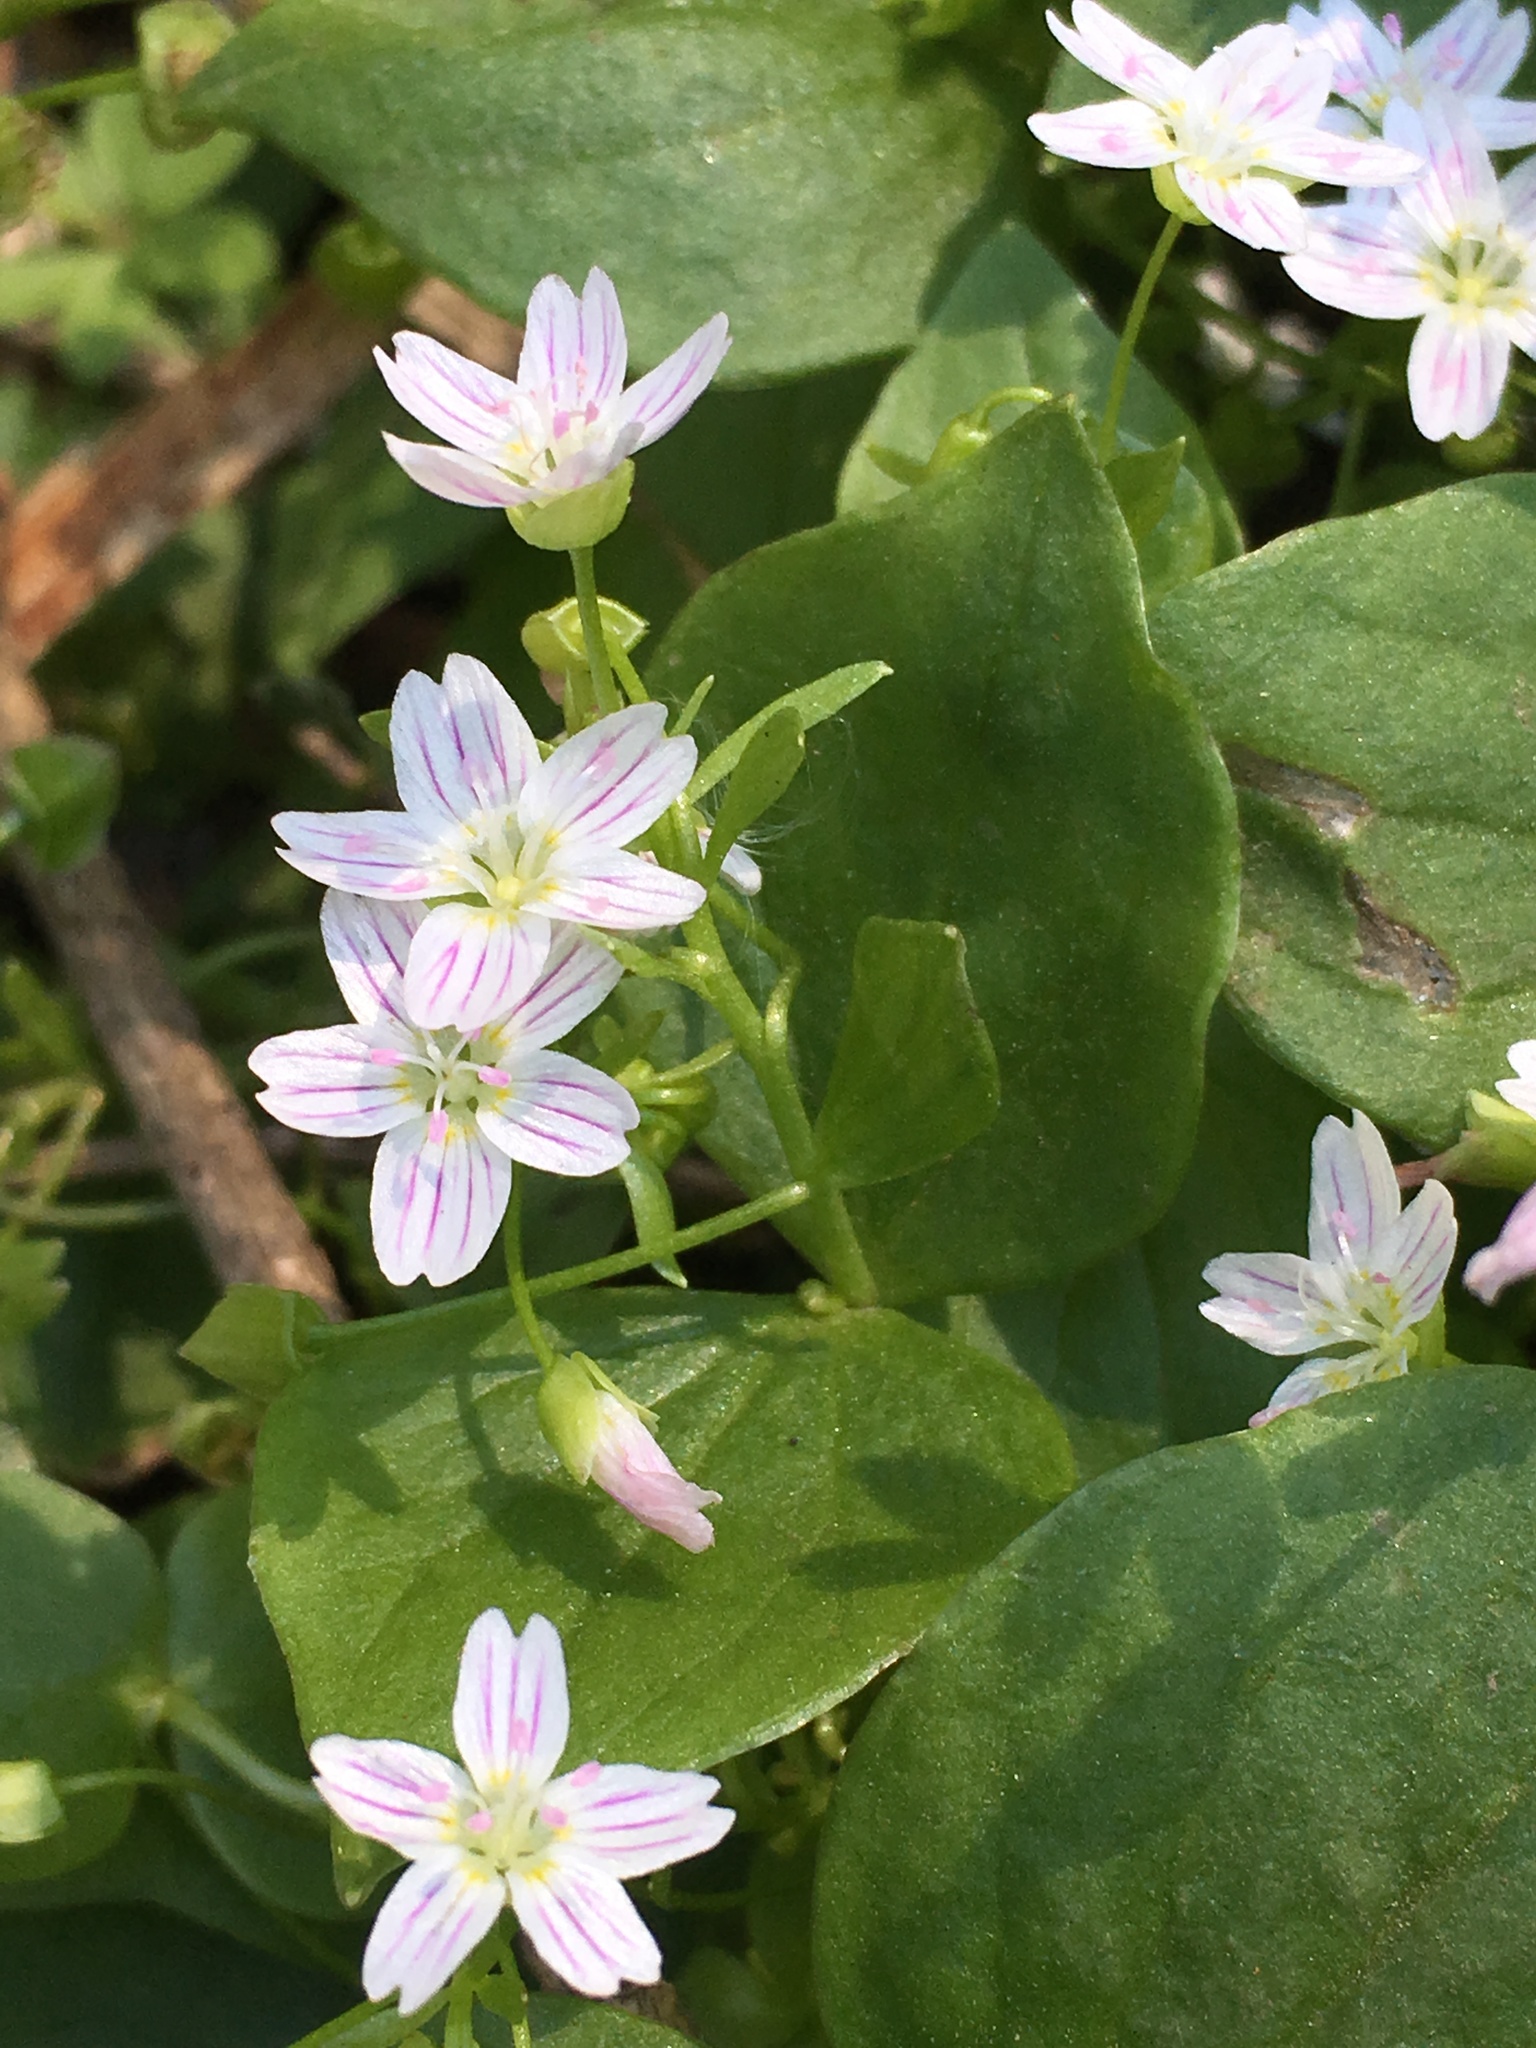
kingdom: Plantae
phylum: Tracheophyta
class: Magnoliopsida
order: Caryophyllales
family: Montiaceae
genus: Claytonia
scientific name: Claytonia sibirica
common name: Pink purslane
